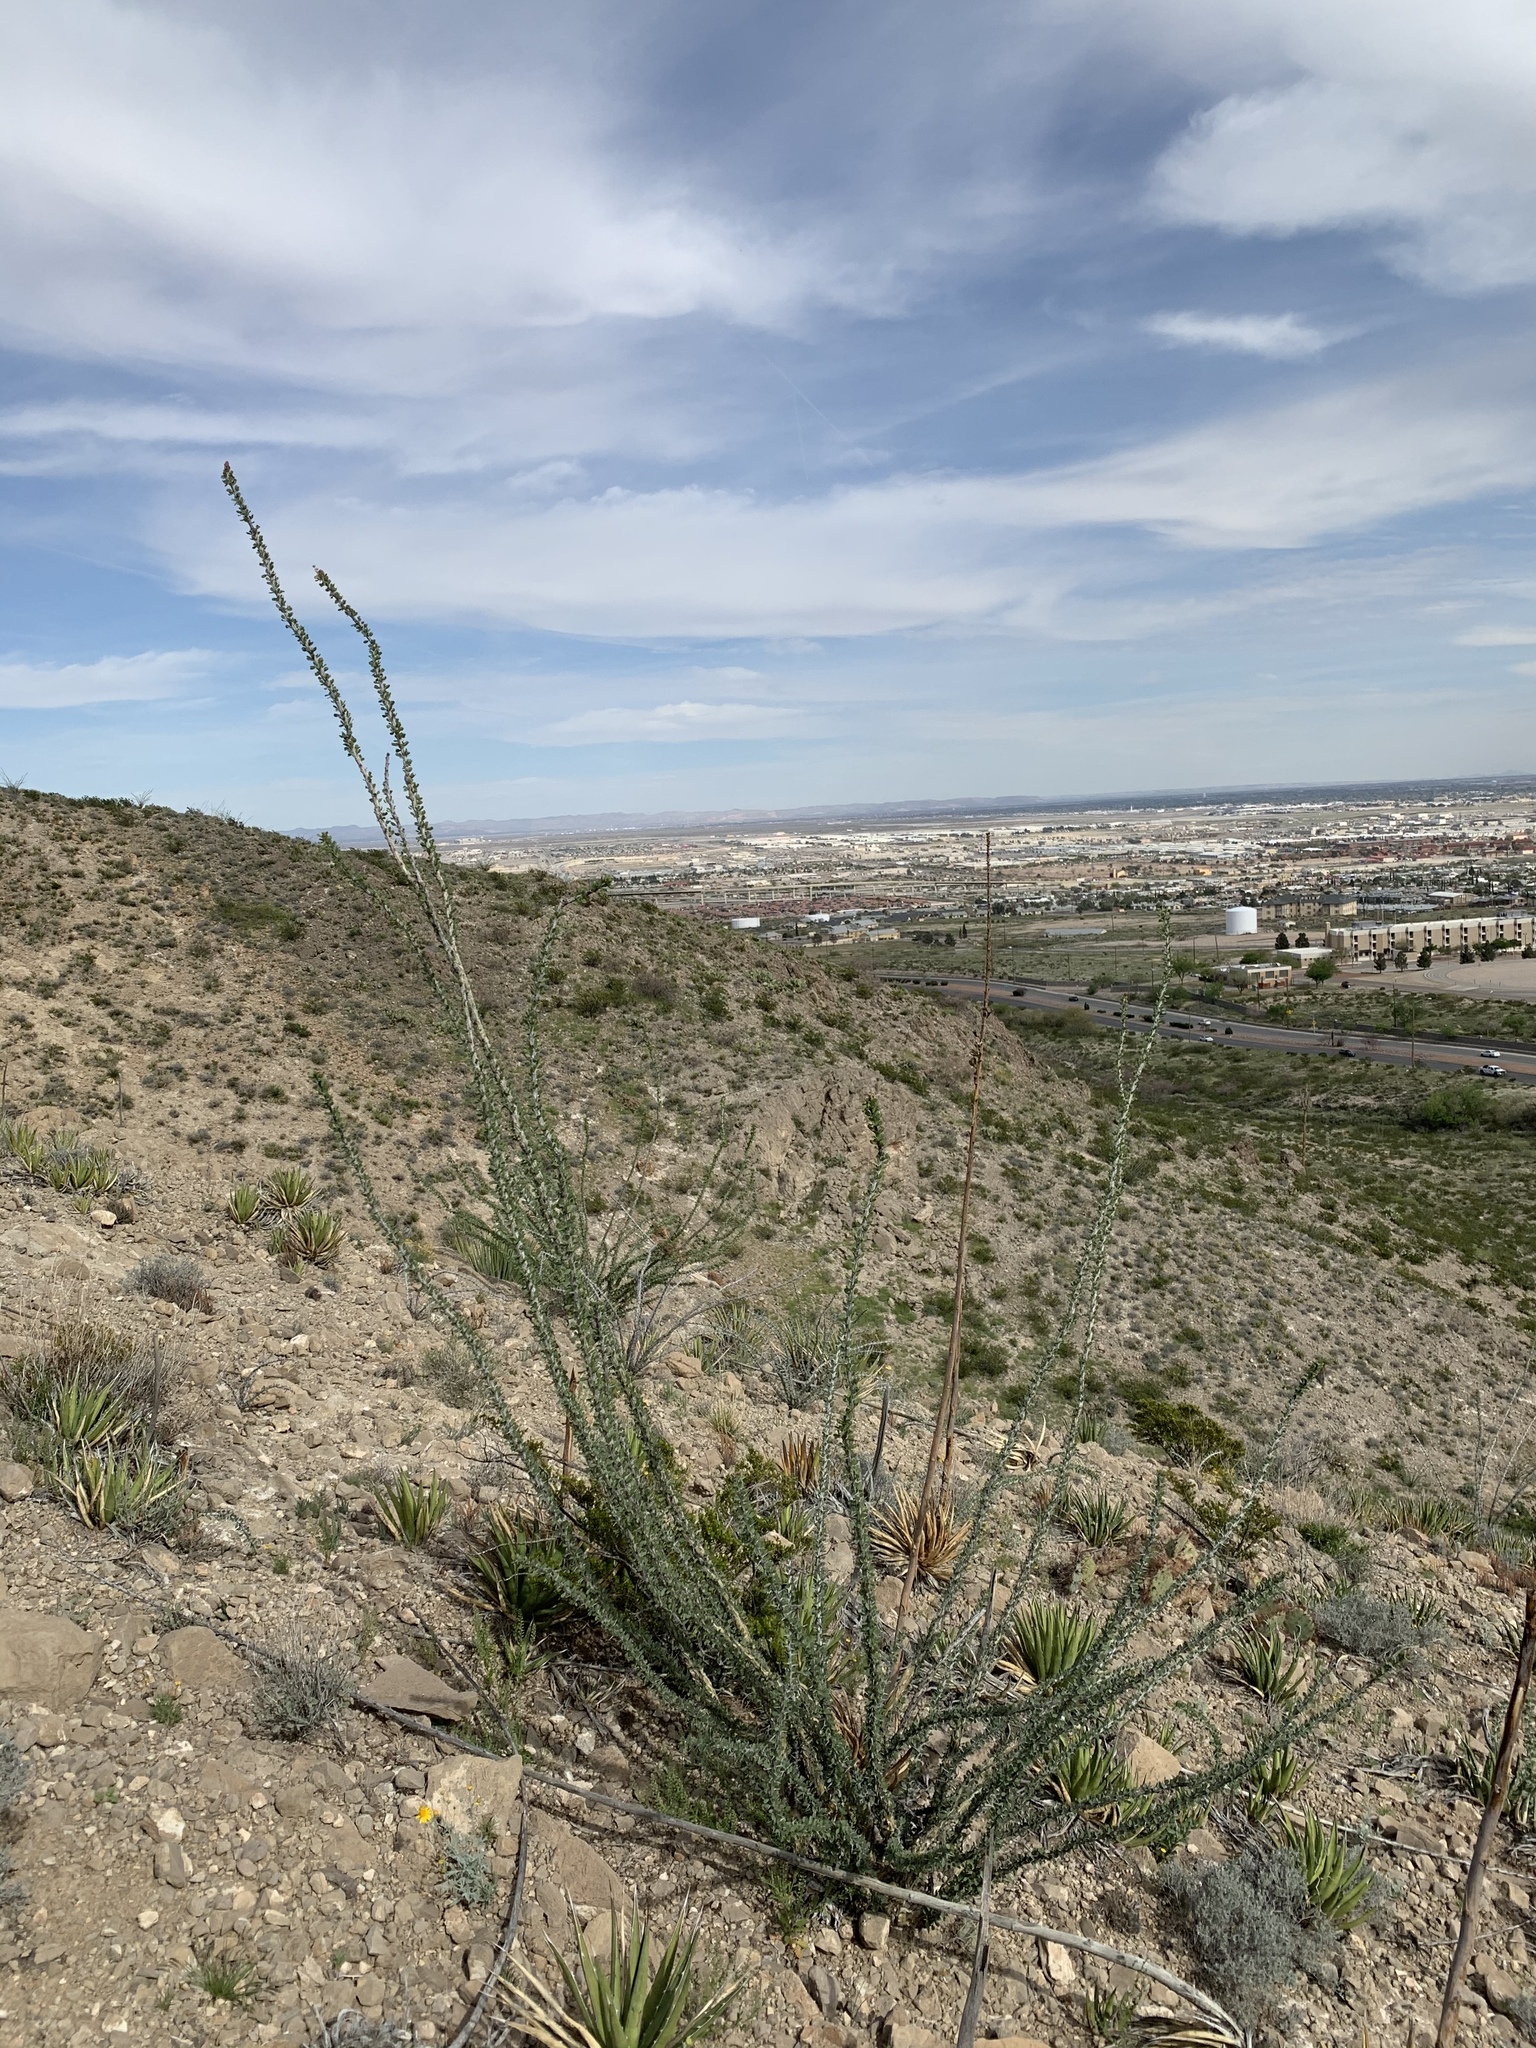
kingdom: Plantae
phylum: Tracheophyta
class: Magnoliopsida
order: Ericales
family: Fouquieriaceae
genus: Fouquieria
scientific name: Fouquieria splendens
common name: Vine-cactus
